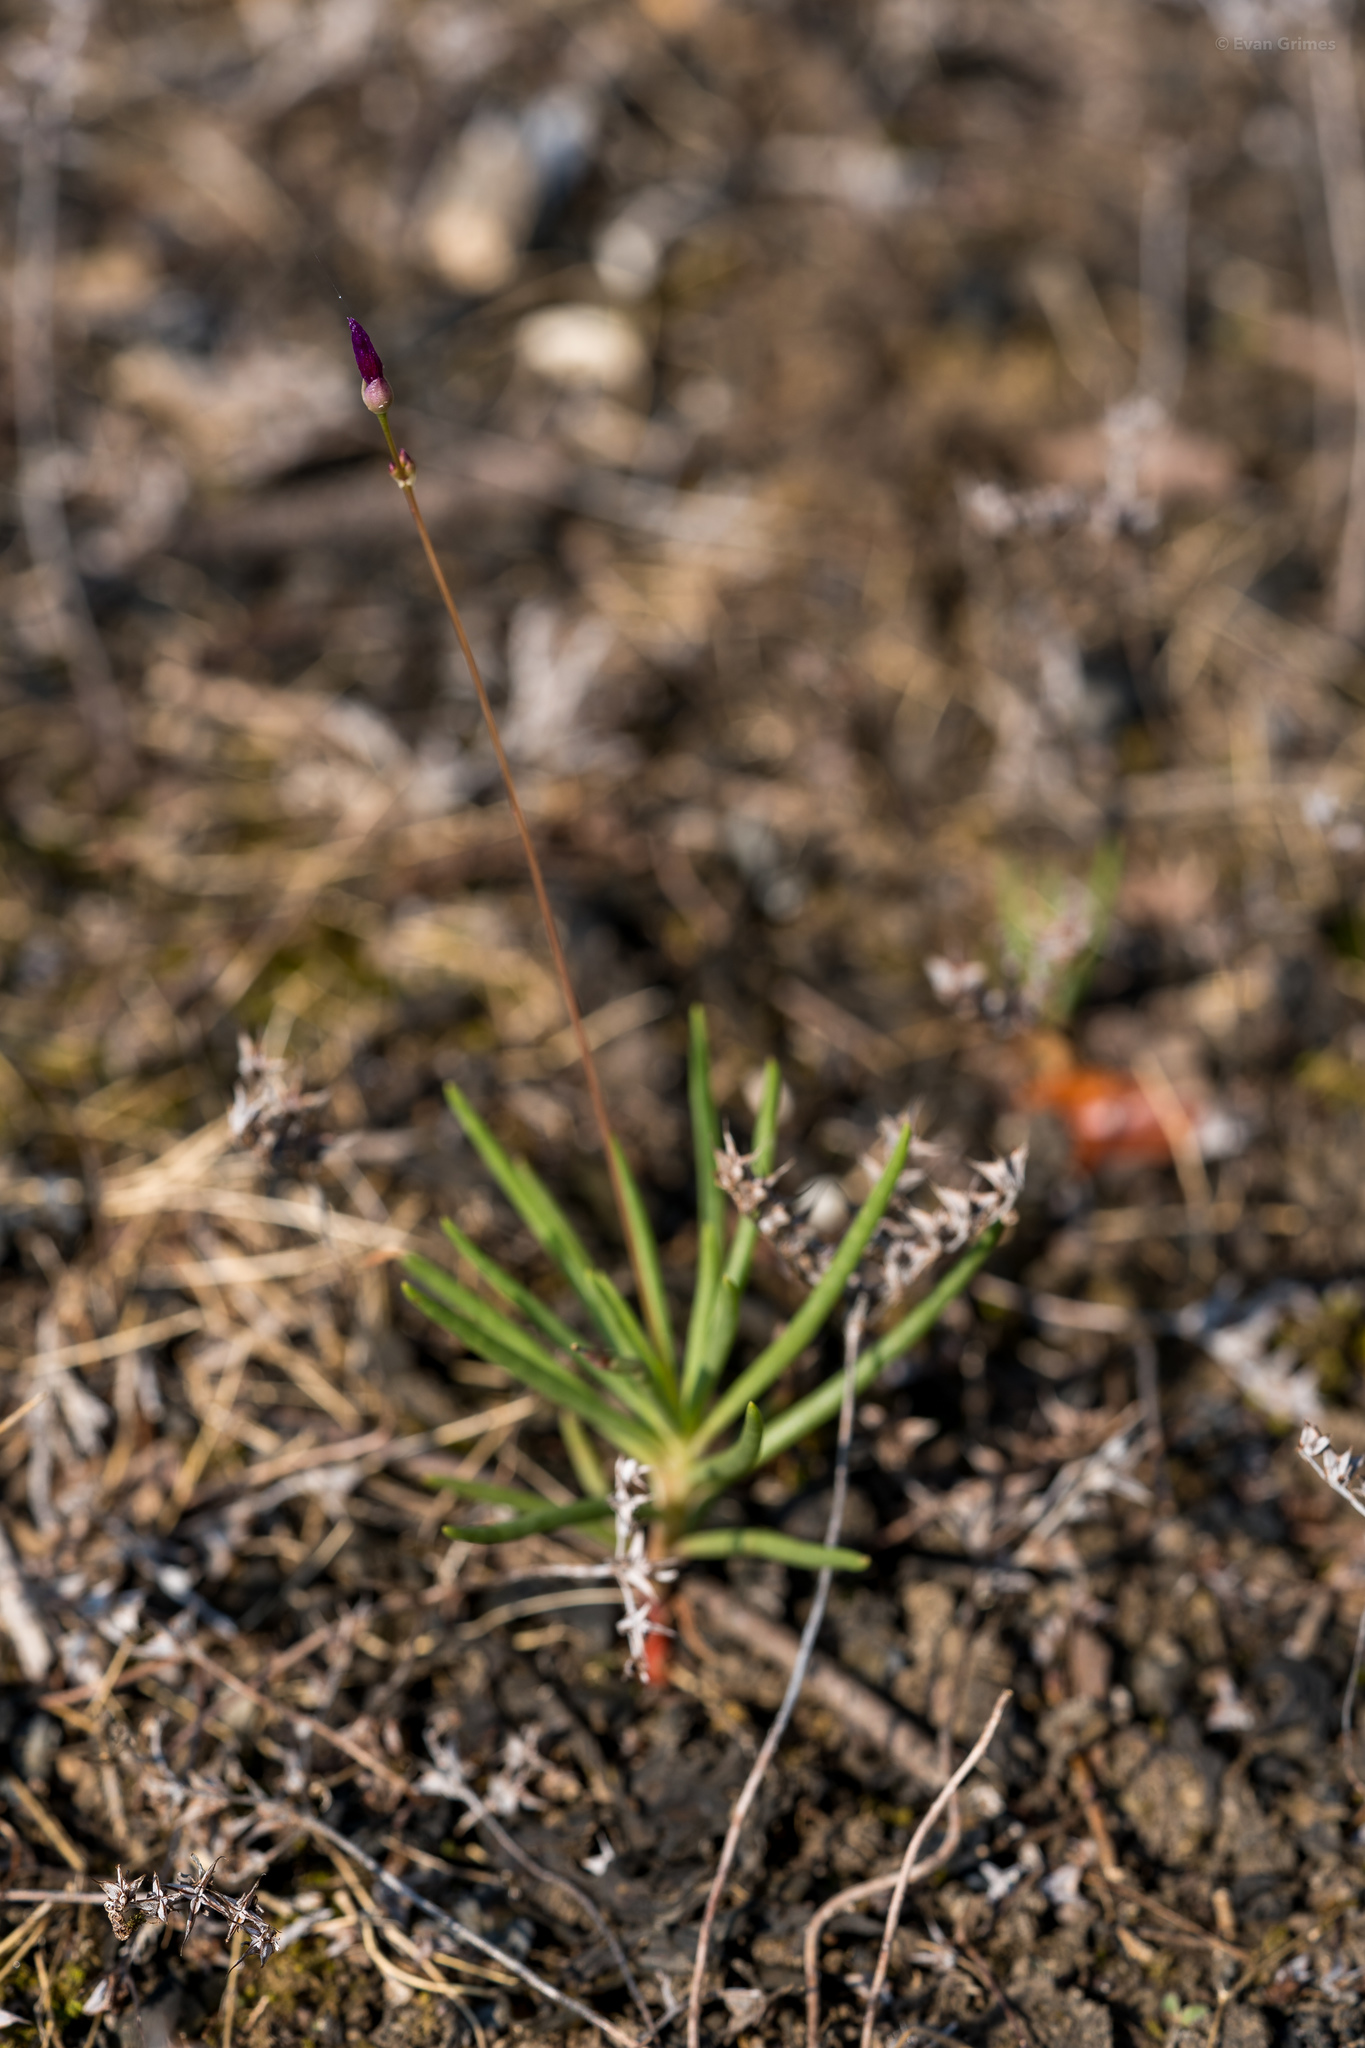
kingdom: Plantae
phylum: Tracheophyta
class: Magnoliopsida
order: Caryophyllales
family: Montiaceae
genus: Phemeranthus
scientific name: Phemeranthus calcaricus
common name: Limestone fameflower
